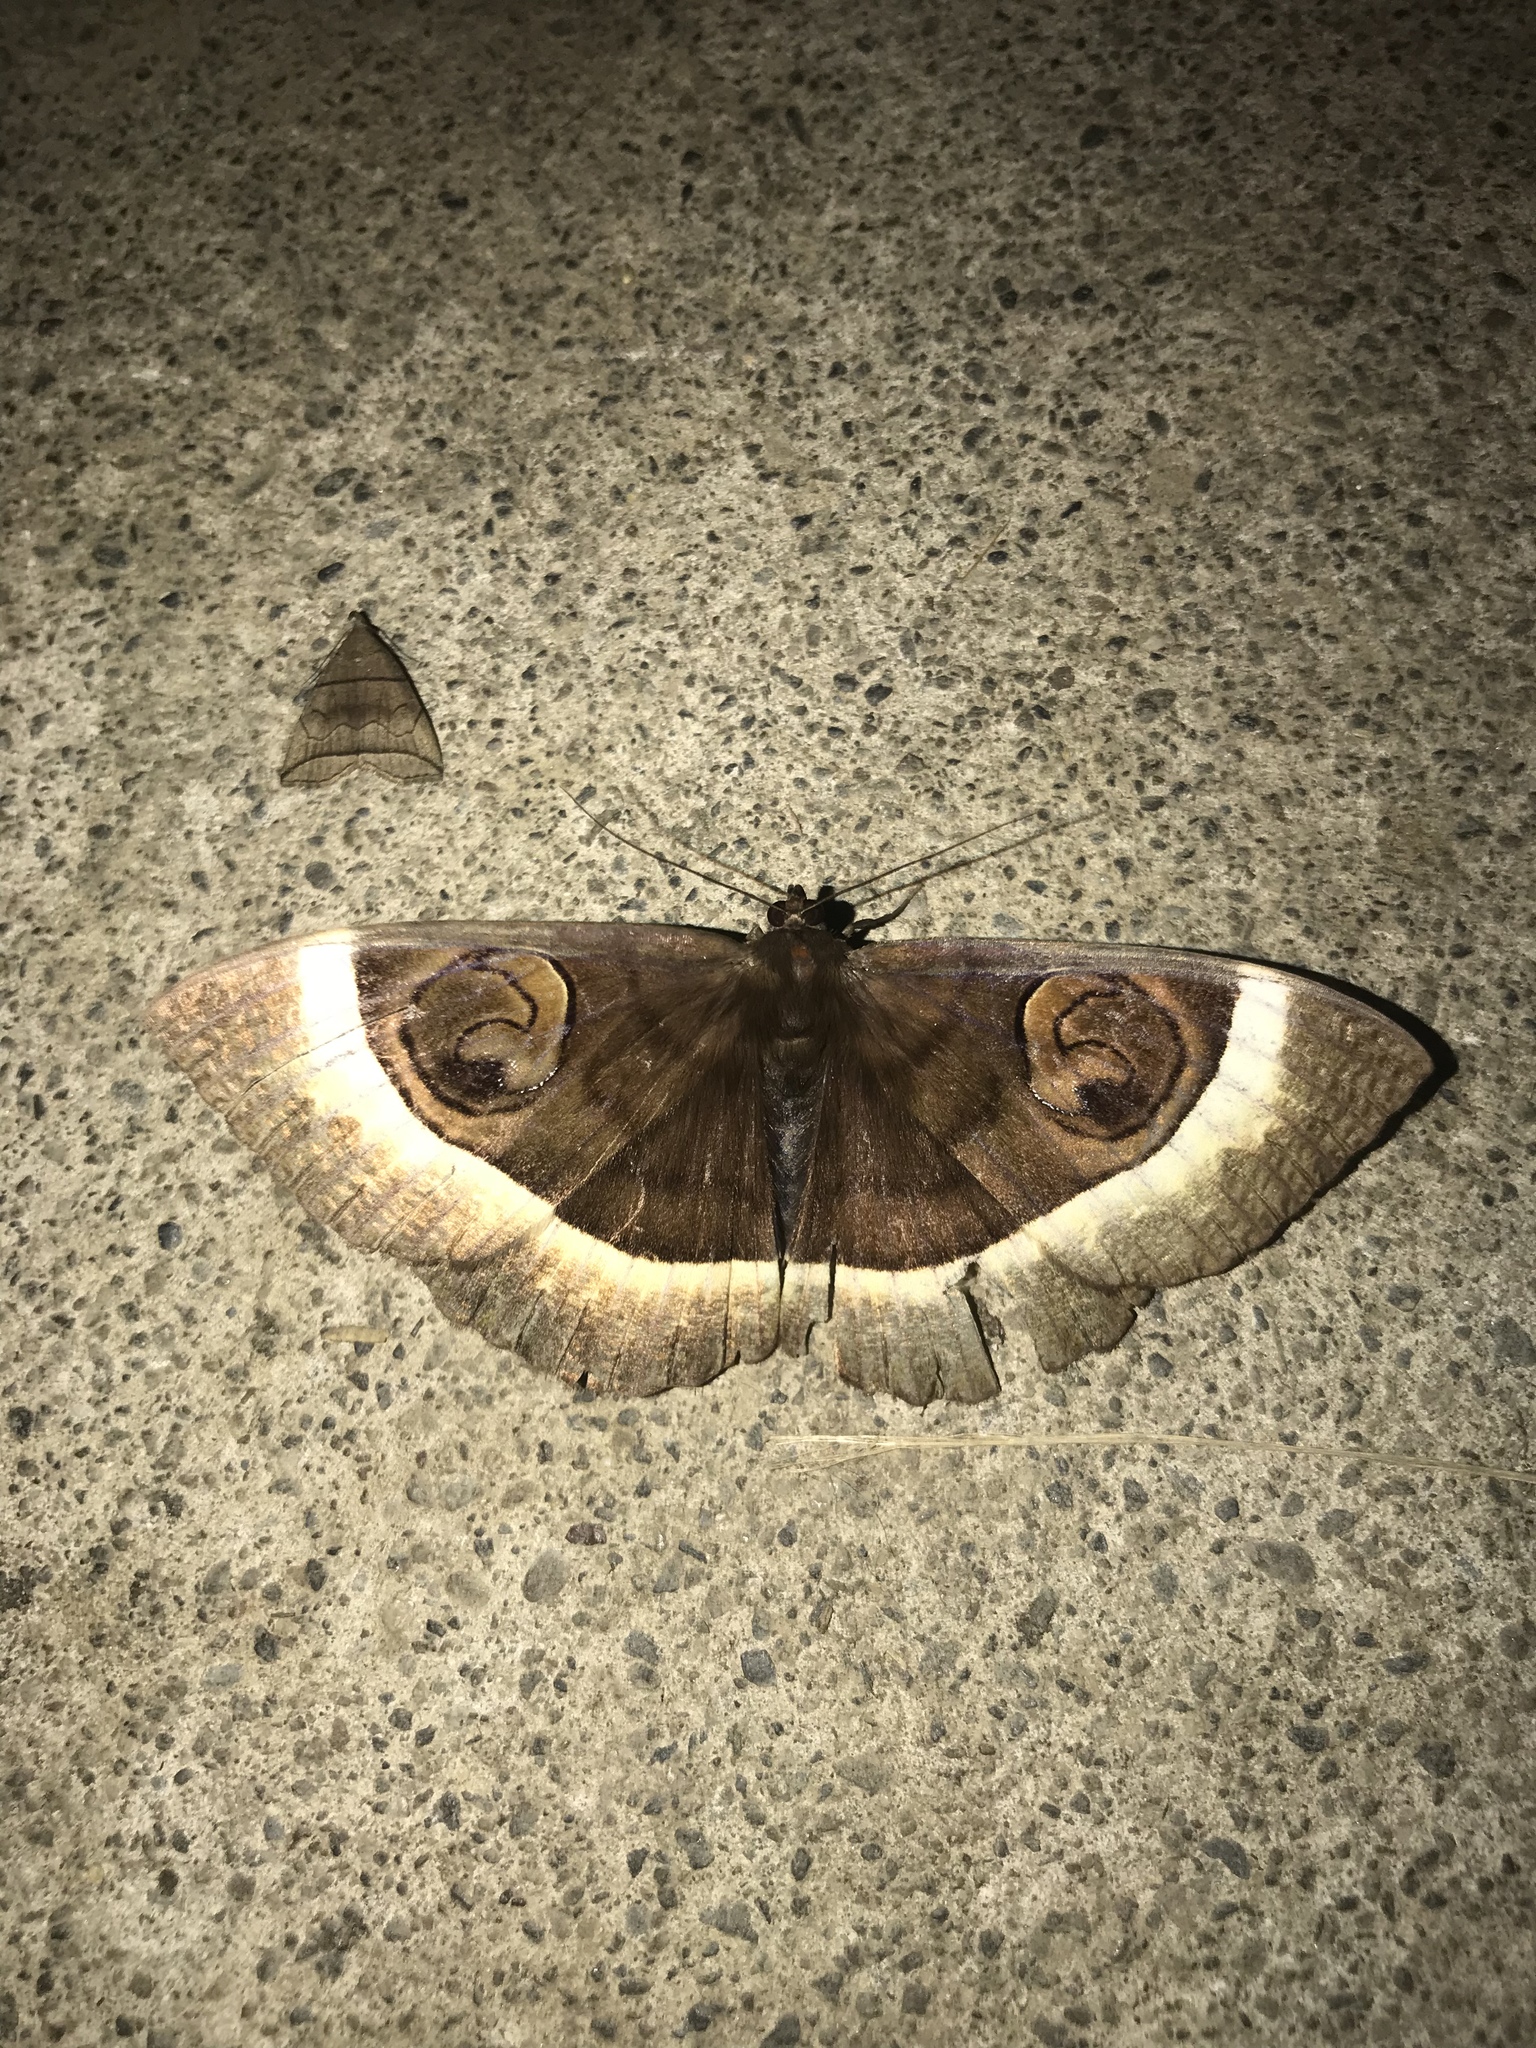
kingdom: Animalia
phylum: Arthropoda
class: Insecta
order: Lepidoptera
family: Erebidae
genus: Erebus
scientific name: Erebus gemmans
